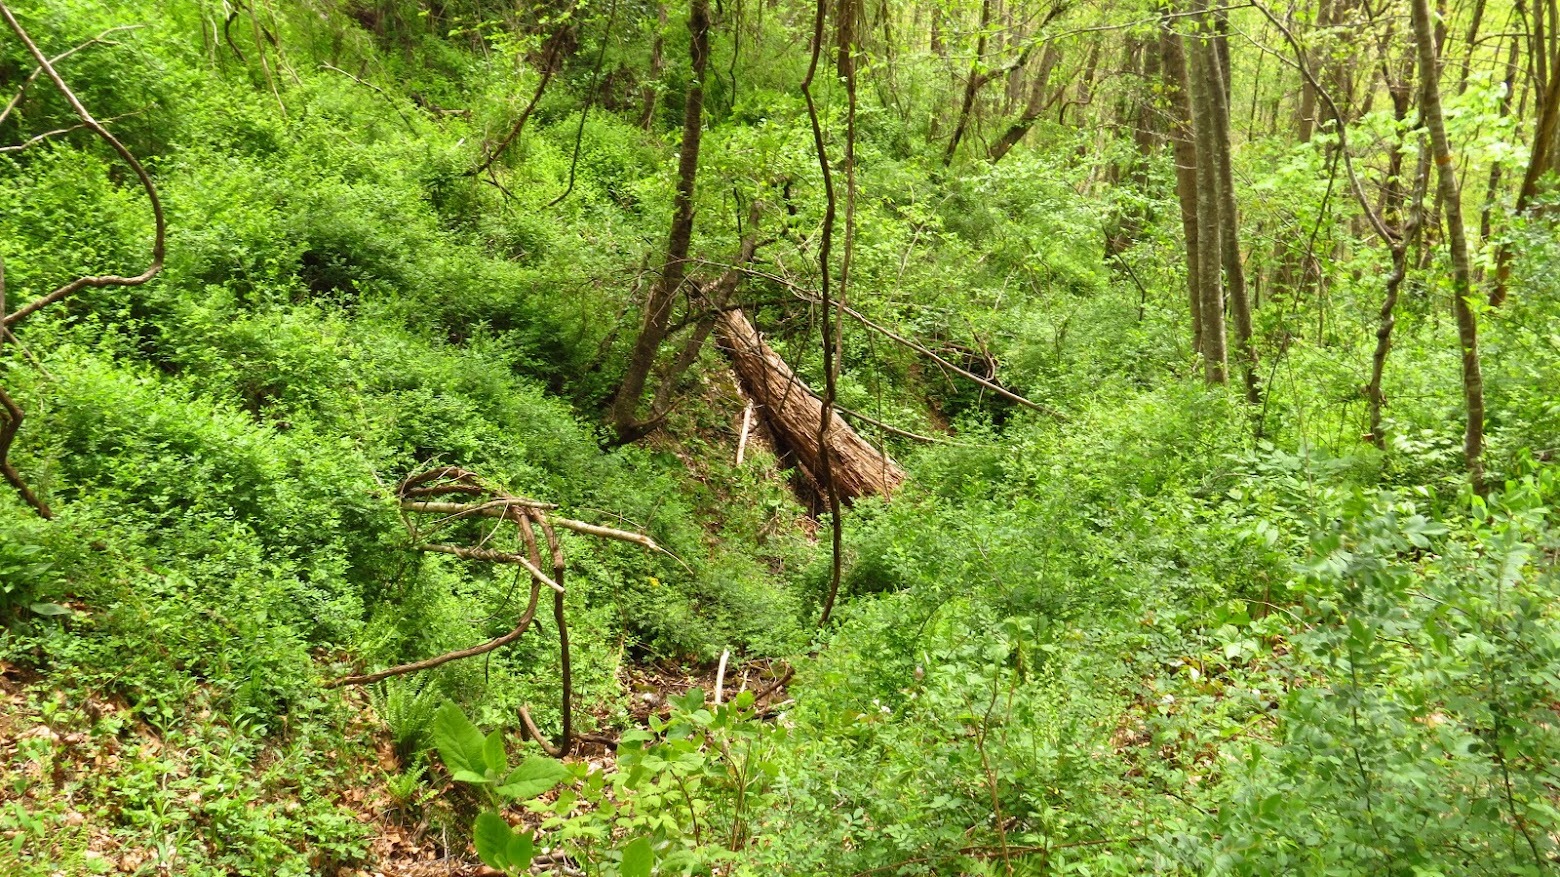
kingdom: Plantae
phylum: Tracheophyta
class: Polypodiopsida
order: Polypodiales
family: Dryopteridaceae
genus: Polystichum
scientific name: Polystichum acrostichoides
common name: Christmas fern
